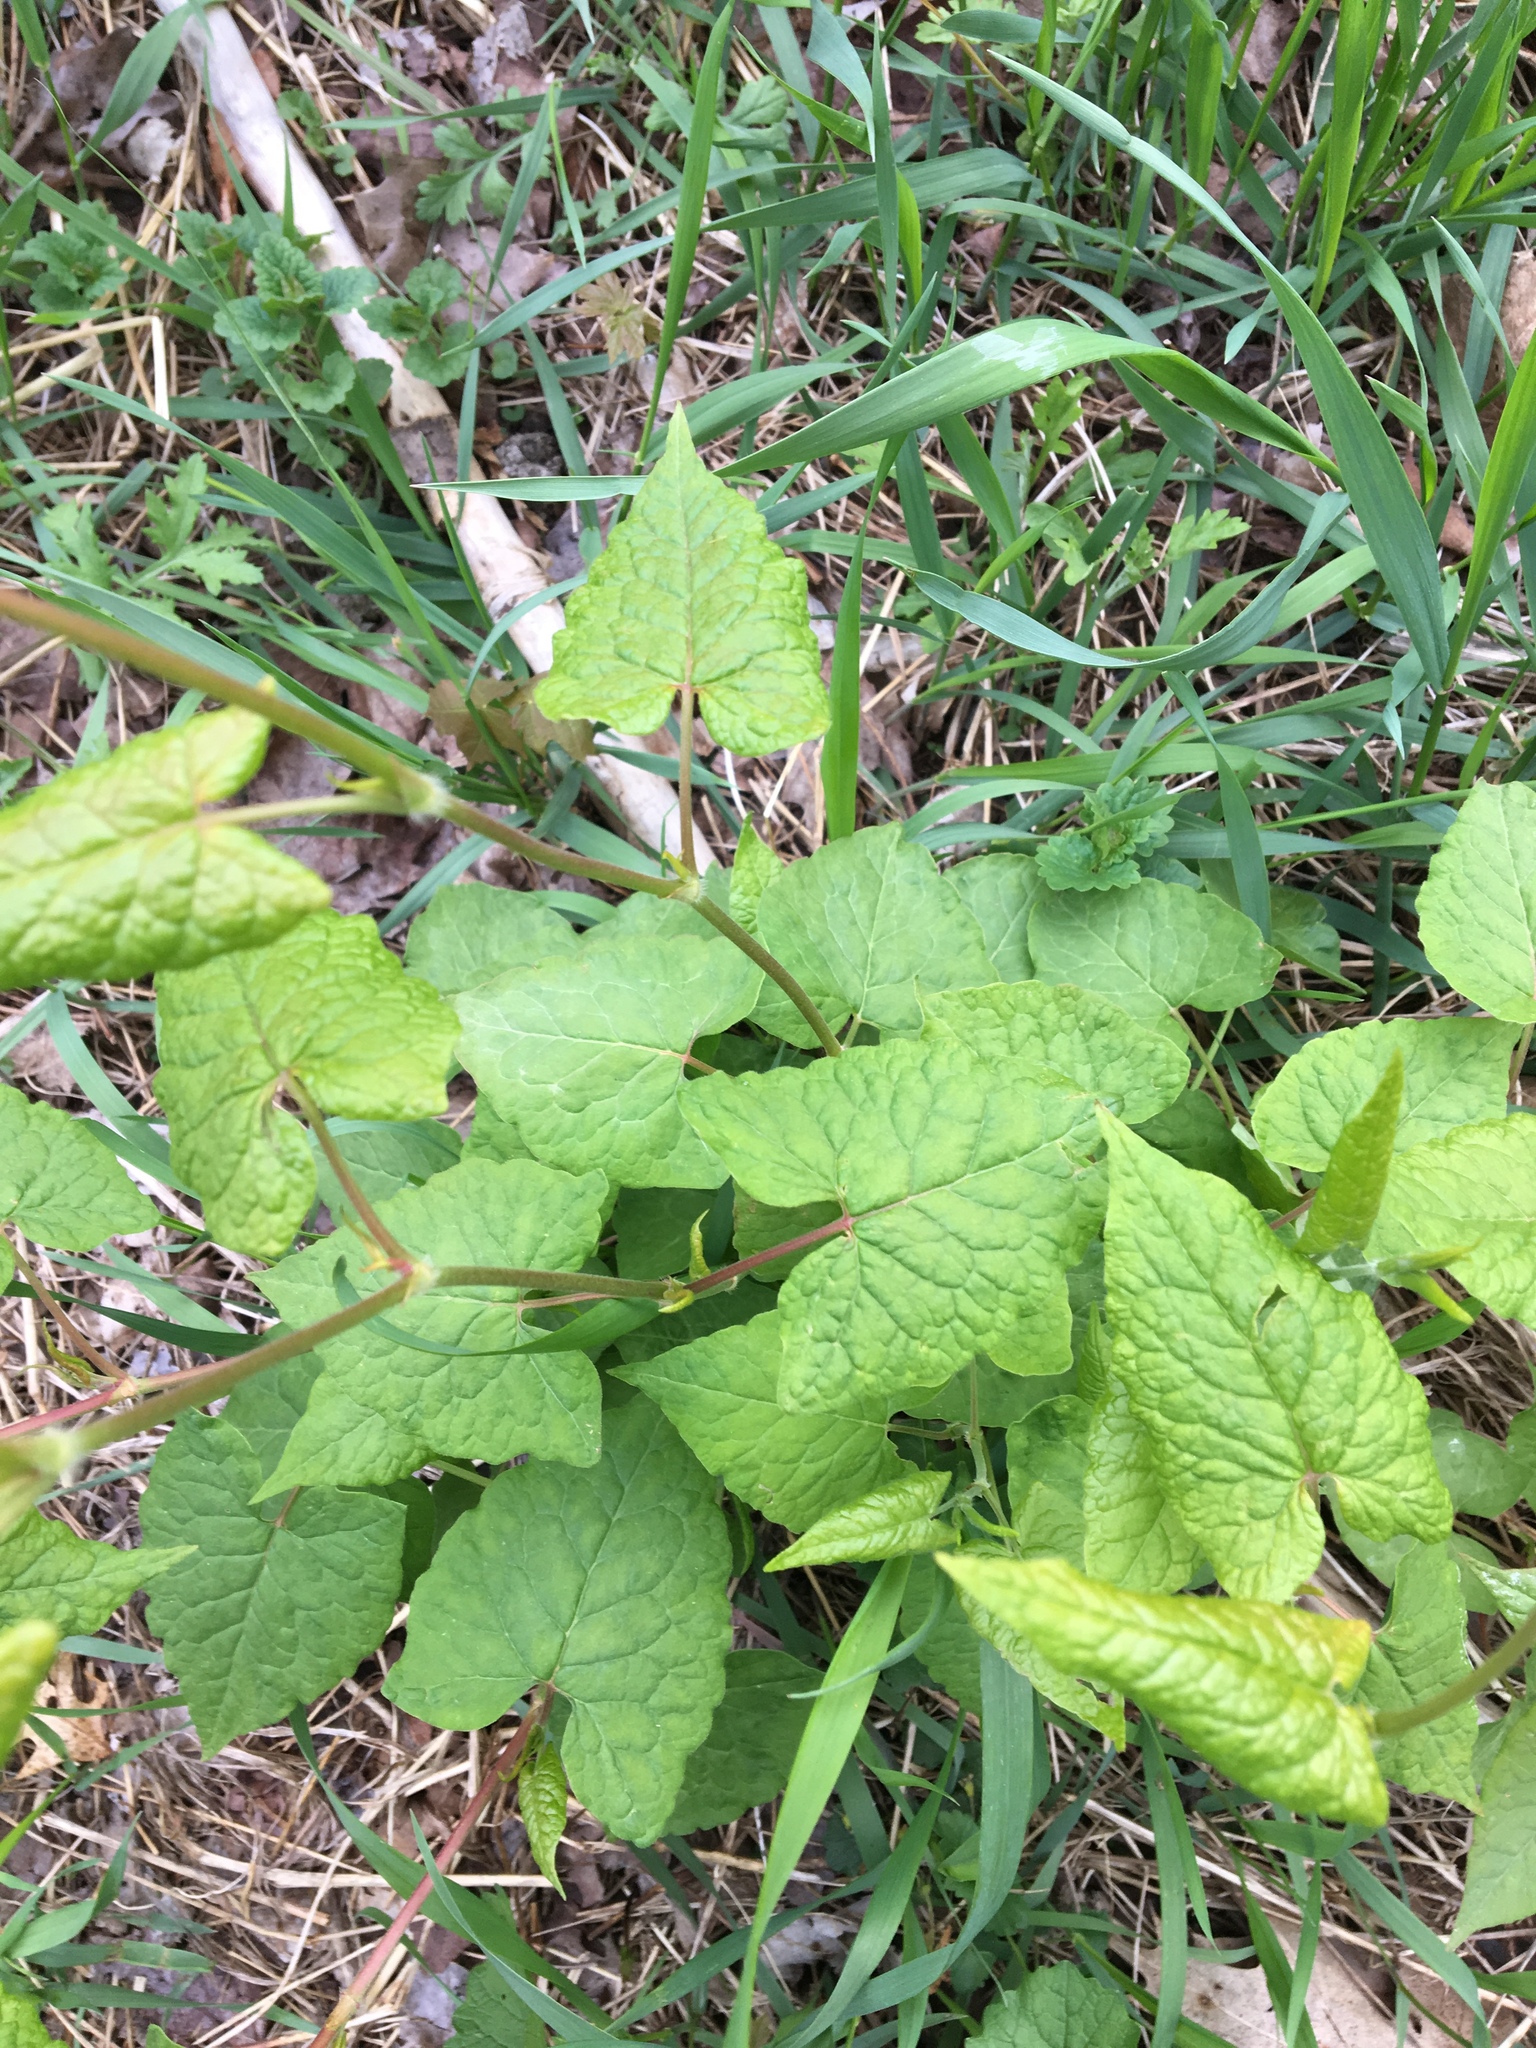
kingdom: Plantae
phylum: Tracheophyta
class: Magnoliopsida
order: Caryophyllales
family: Polygonaceae
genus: Reynoutria
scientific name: Reynoutria japonica
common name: Japanese knotweed
